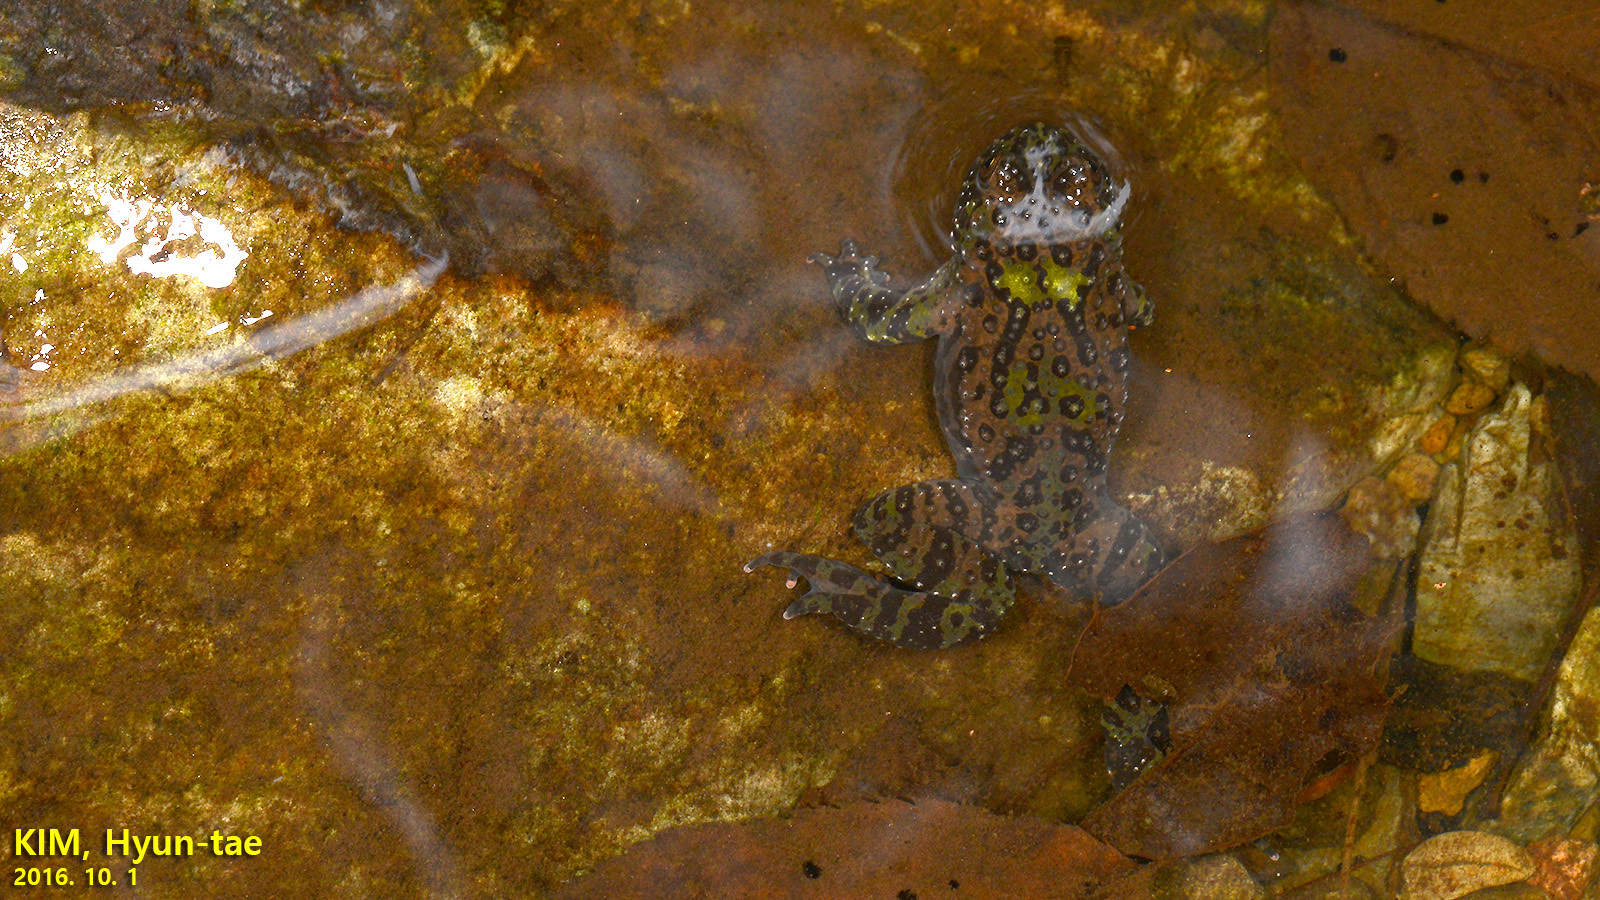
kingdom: Animalia
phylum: Chordata
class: Amphibia
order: Anura
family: Bombinatoridae
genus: Bombina
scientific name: Bombina orientalis
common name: Oriental firebelly toad
